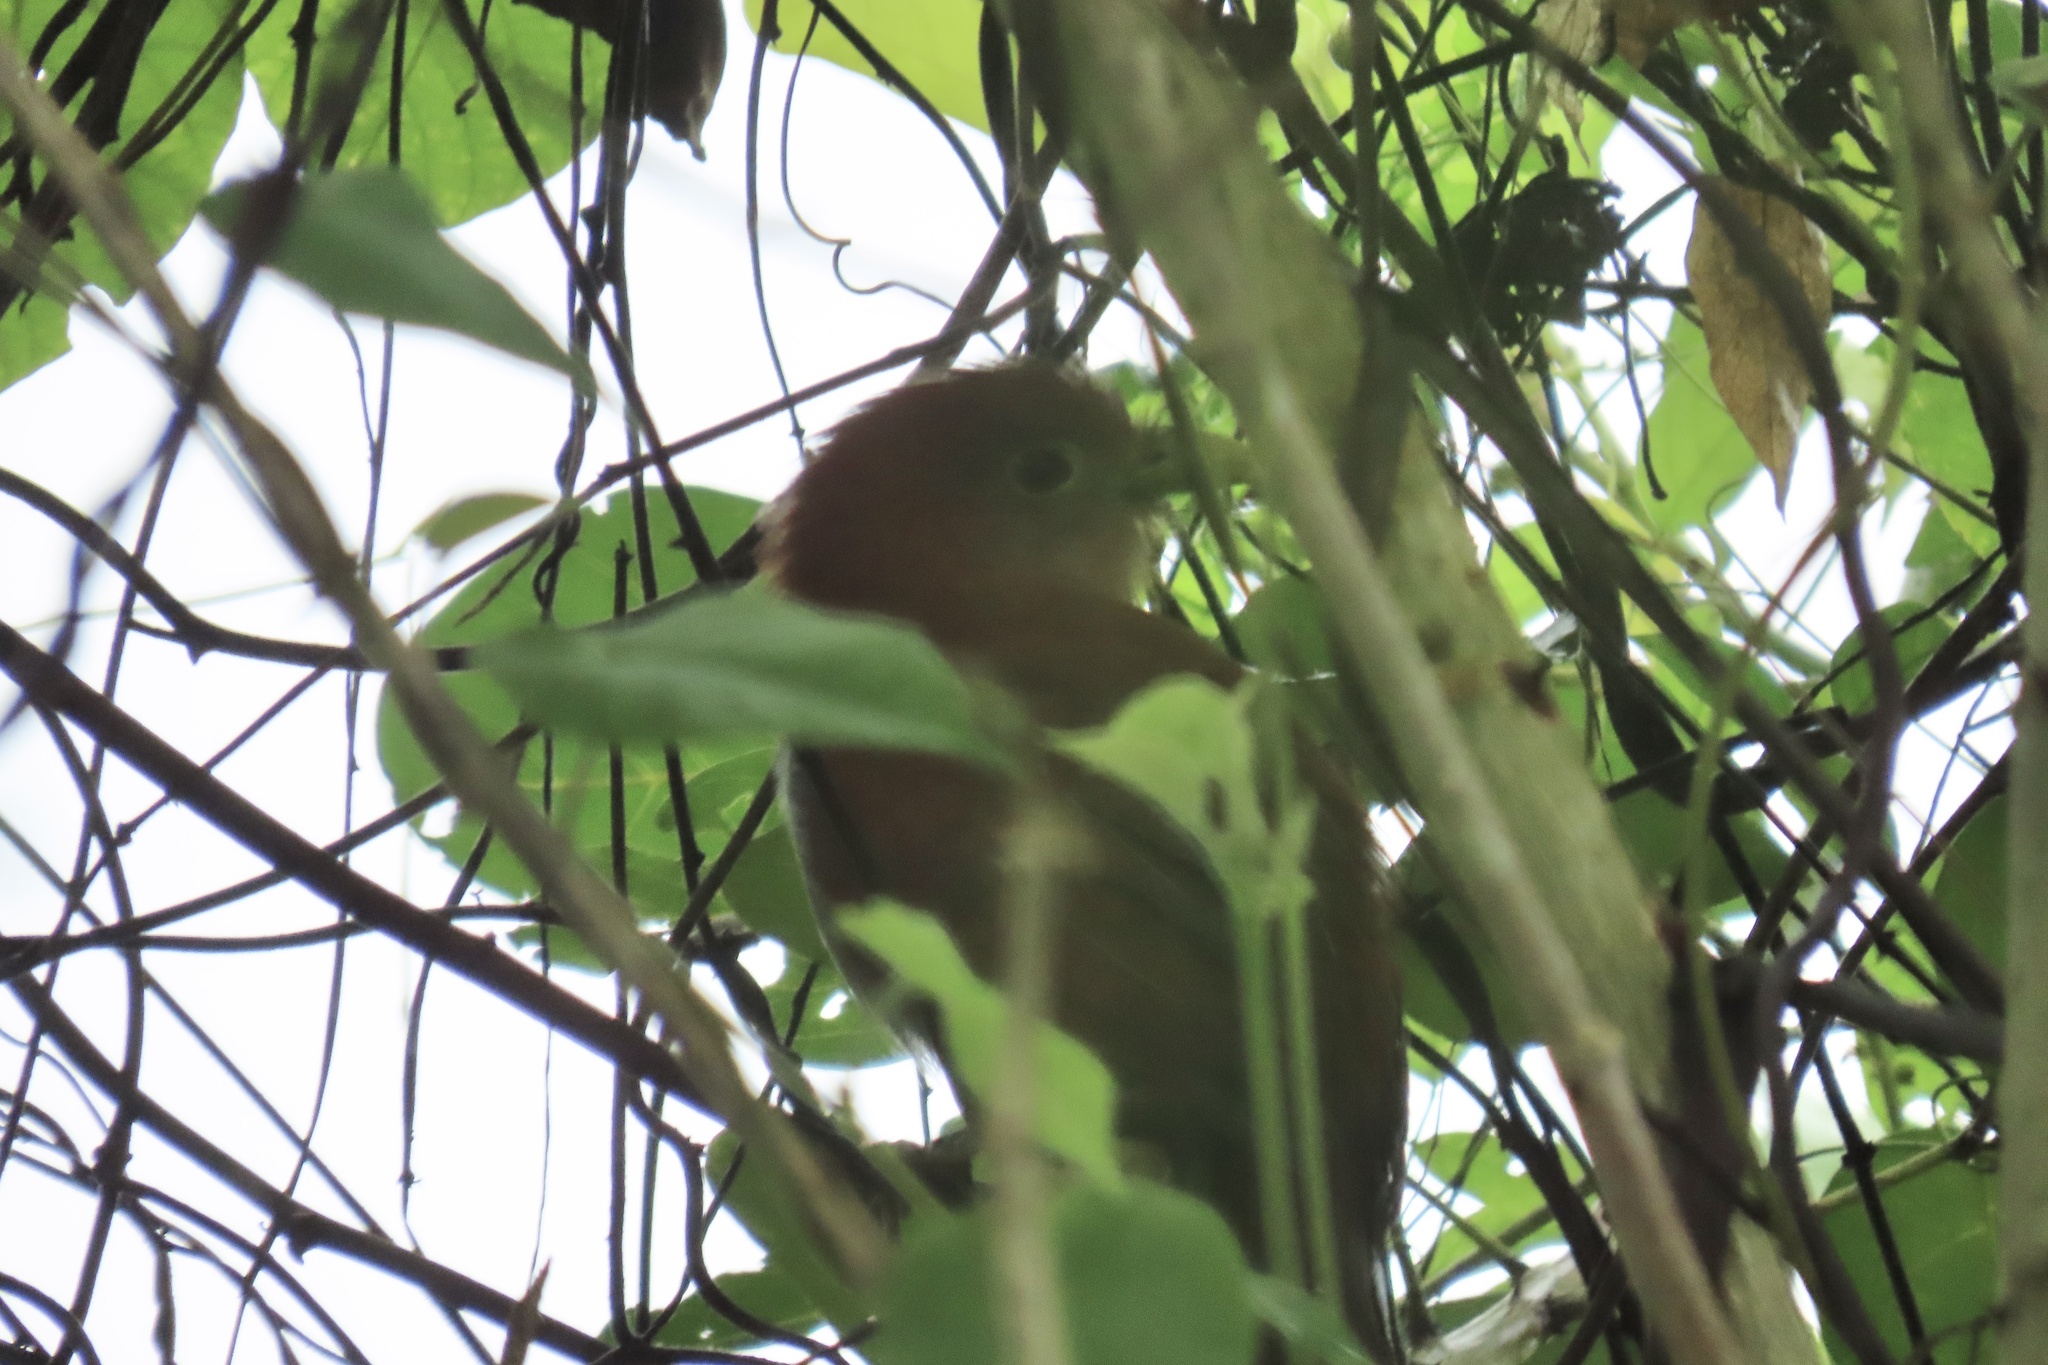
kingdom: Animalia
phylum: Chordata
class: Aves
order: Cuculiformes
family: Cuculidae
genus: Piaya
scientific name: Piaya cayana
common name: Squirrel cuckoo
